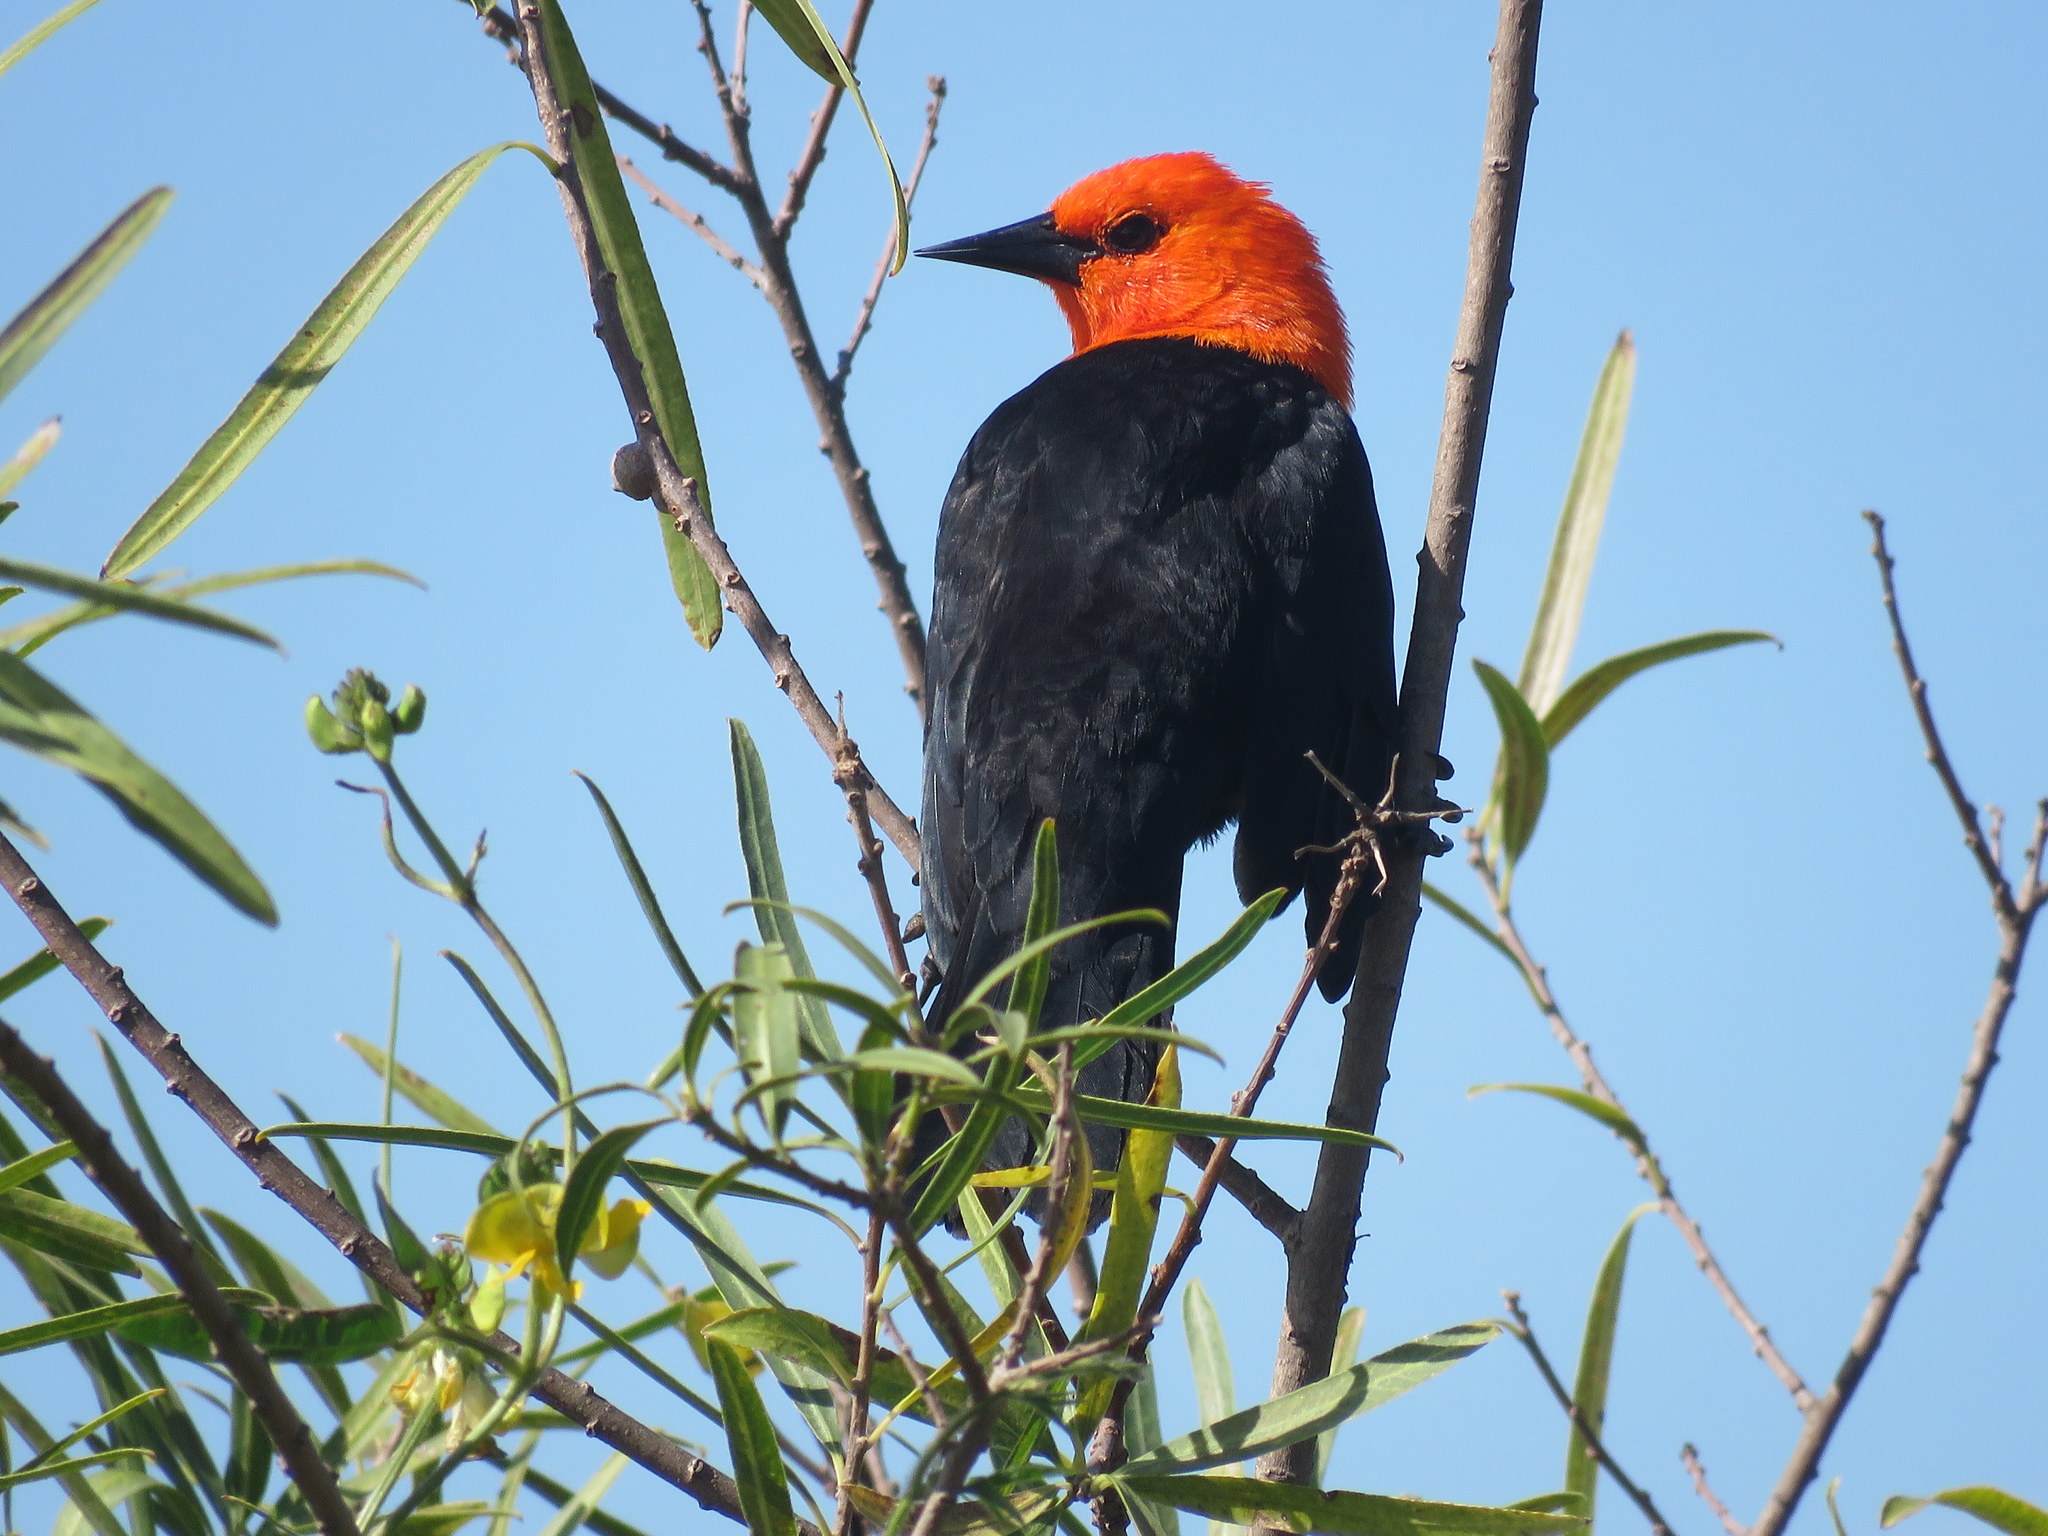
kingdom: Animalia
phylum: Chordata
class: Aves
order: Passeriformes
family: Icteridae
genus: Amblyramphus
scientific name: Amblyramphus holosericeus
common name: Scarlet-headed blackbird
